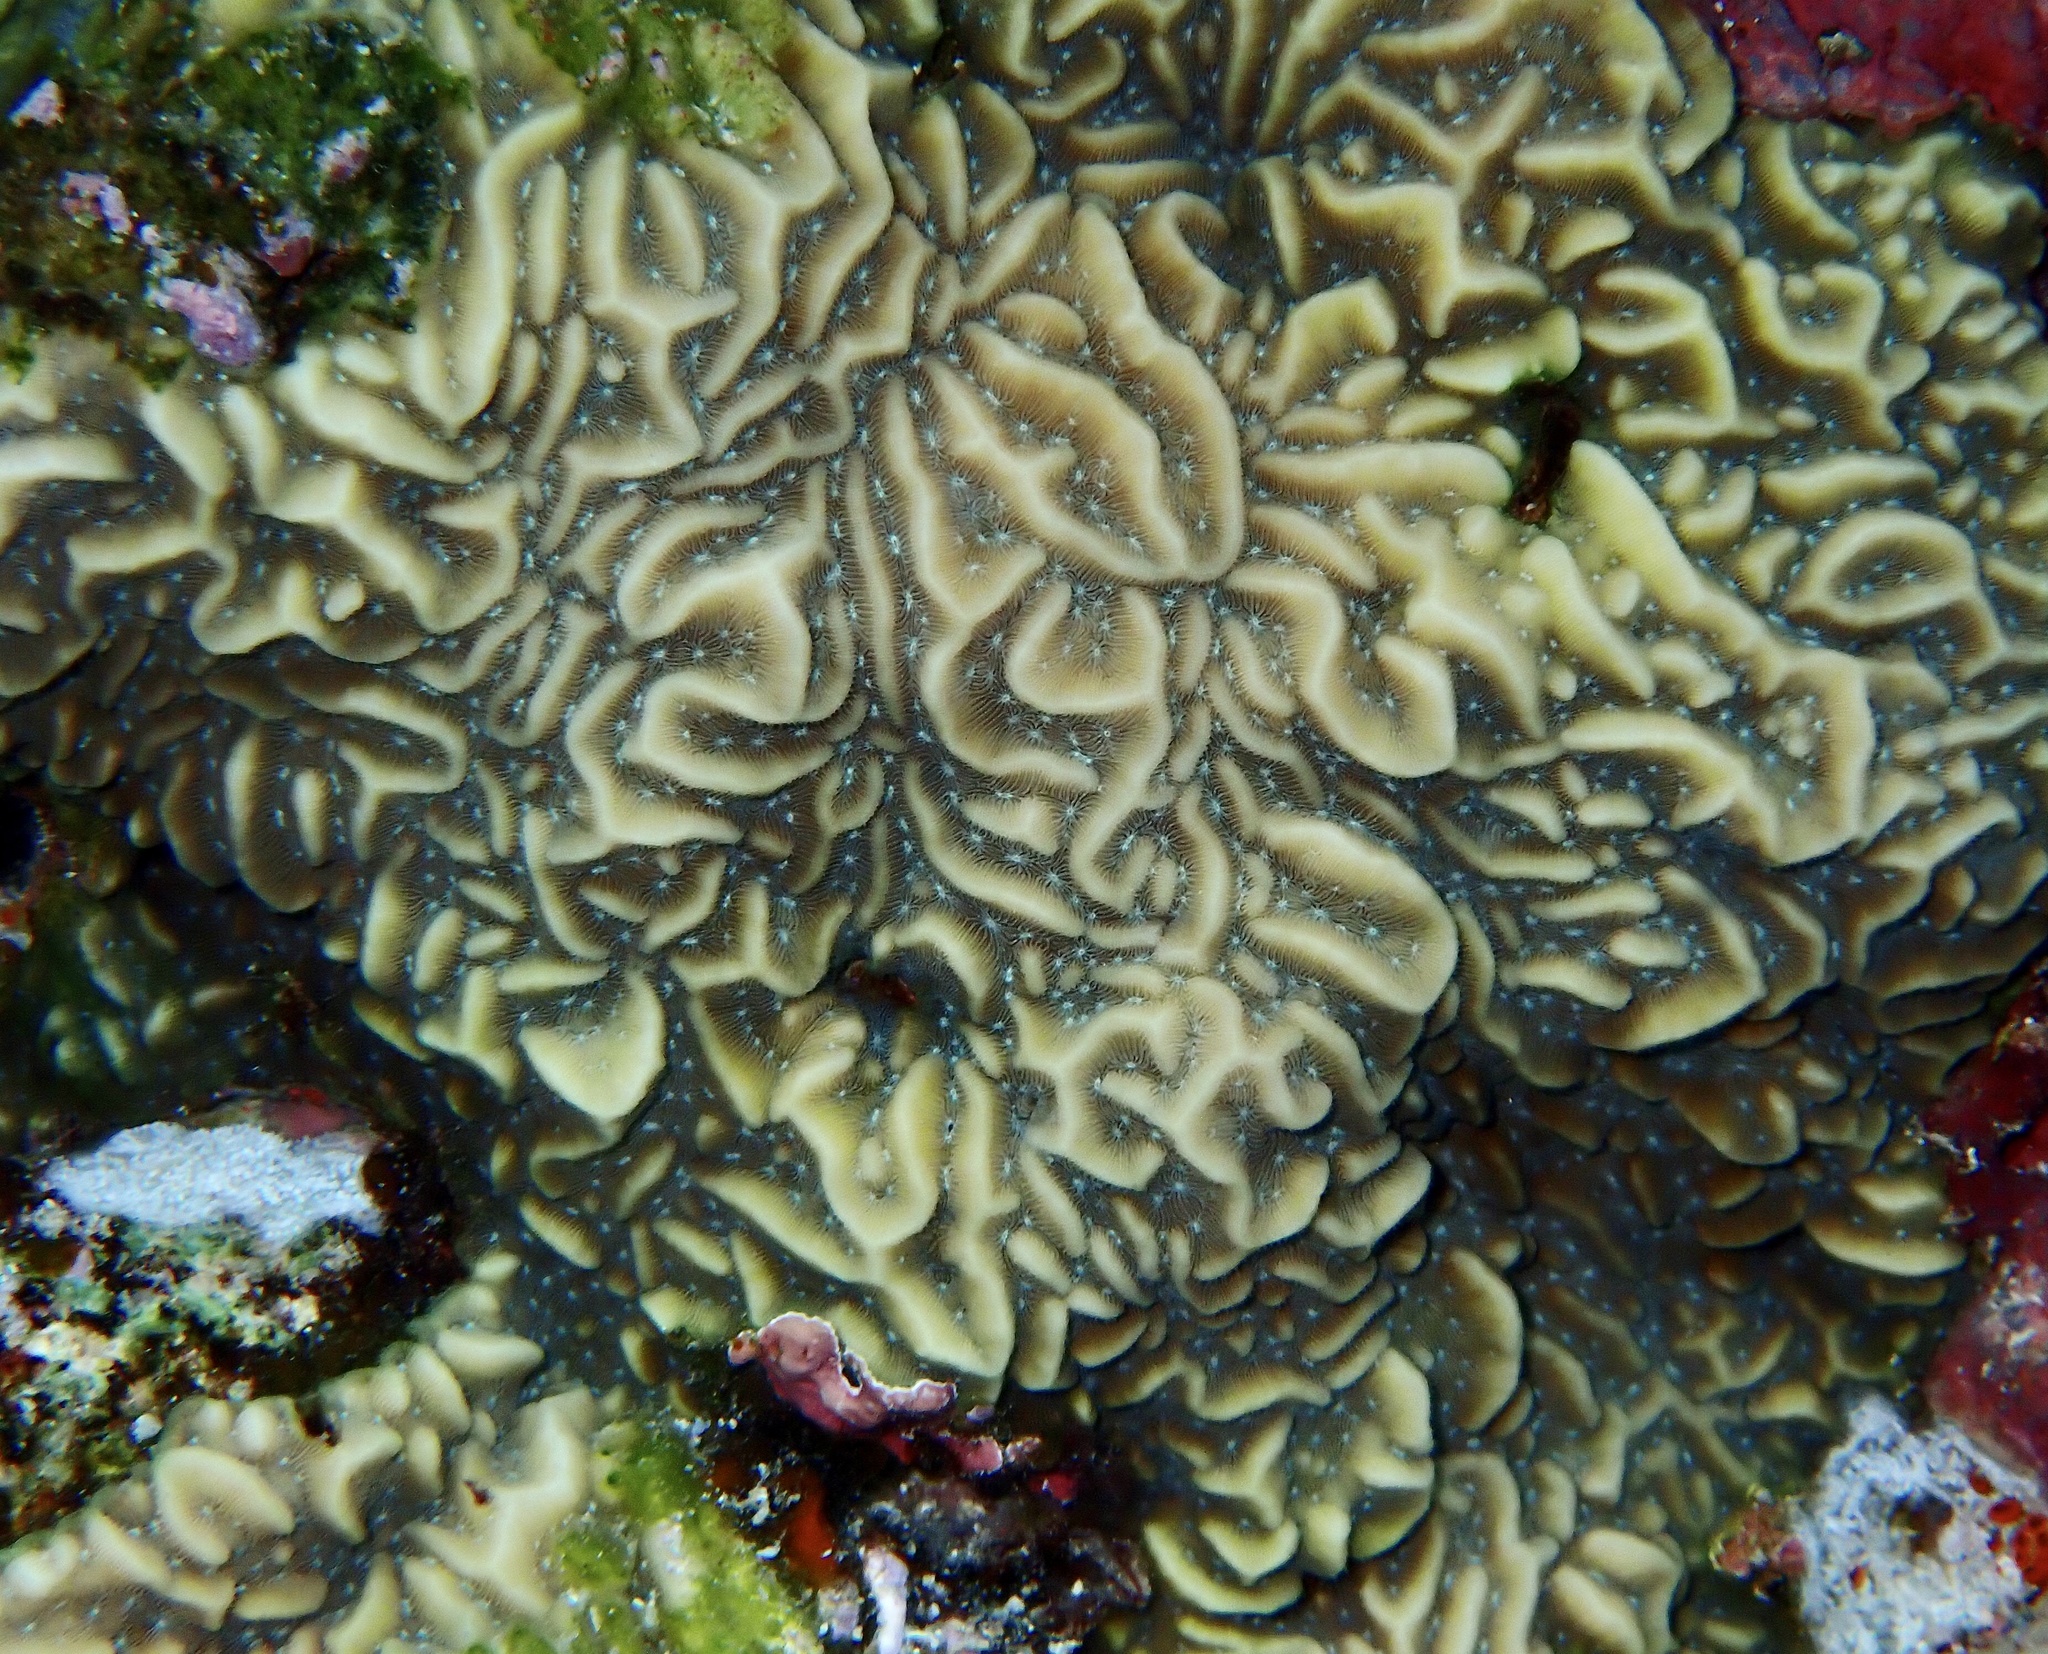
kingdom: Animalia
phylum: Cnidaria
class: Anthozoa
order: Scleractinia
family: Agariciidae
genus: Pavona
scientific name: Pavona varians
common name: Leaf coral
